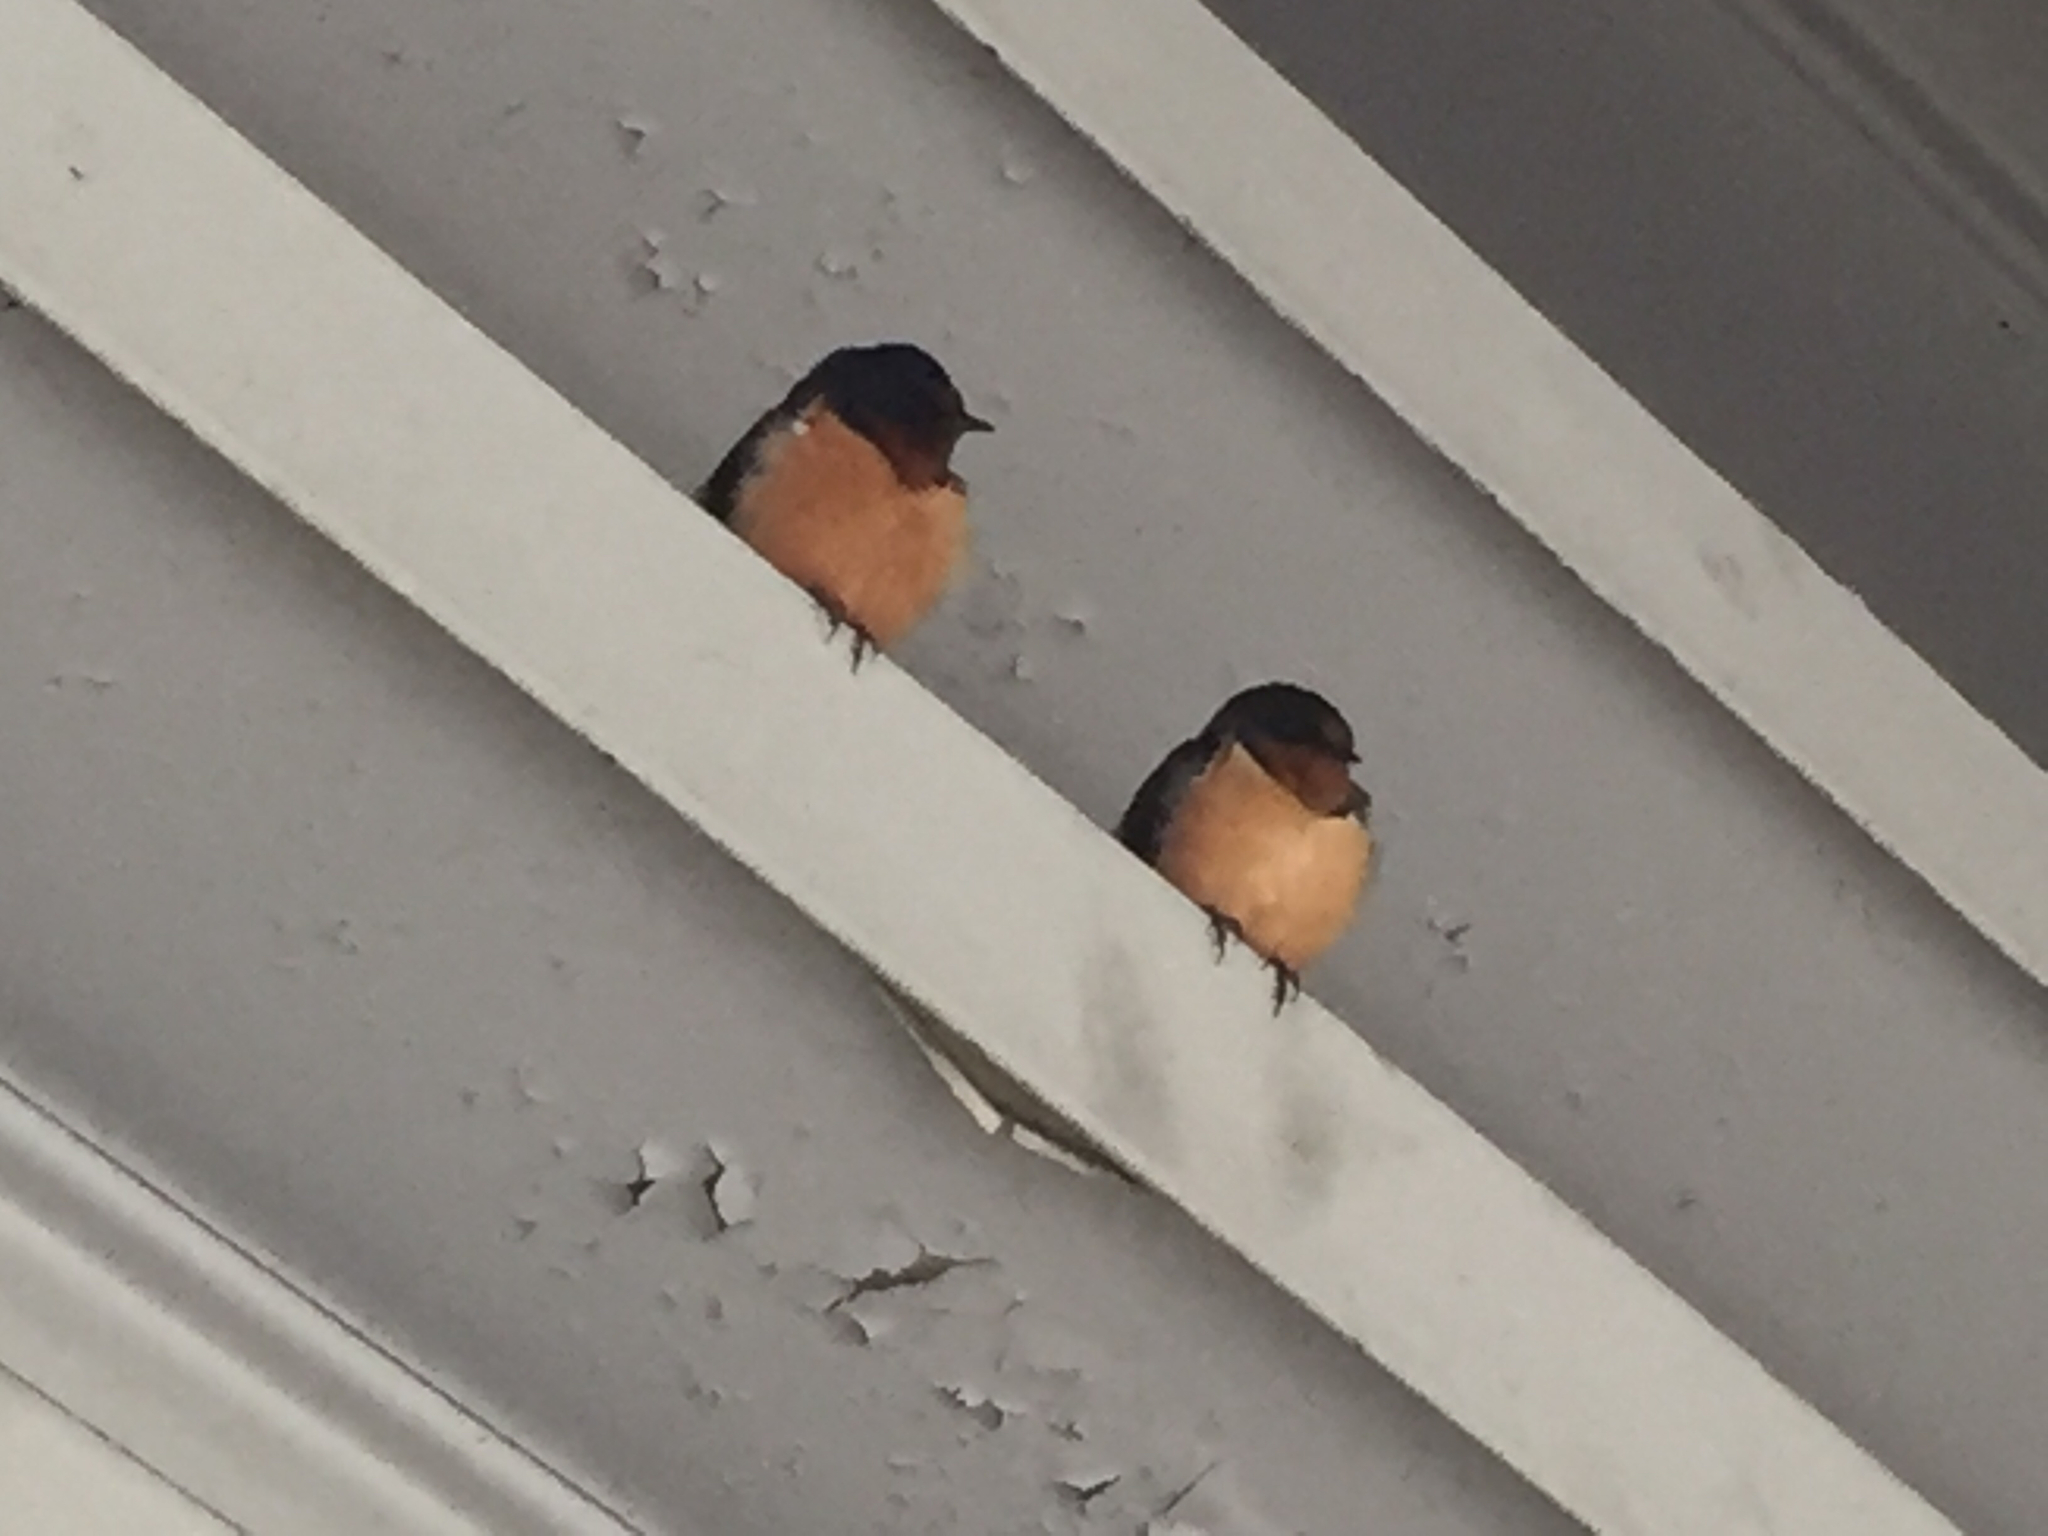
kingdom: Animalia
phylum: Chordata
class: Aves
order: Passeriformes
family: Hirundinidae
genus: Hirundo
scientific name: Hirundo rustica
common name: Barn swallow
